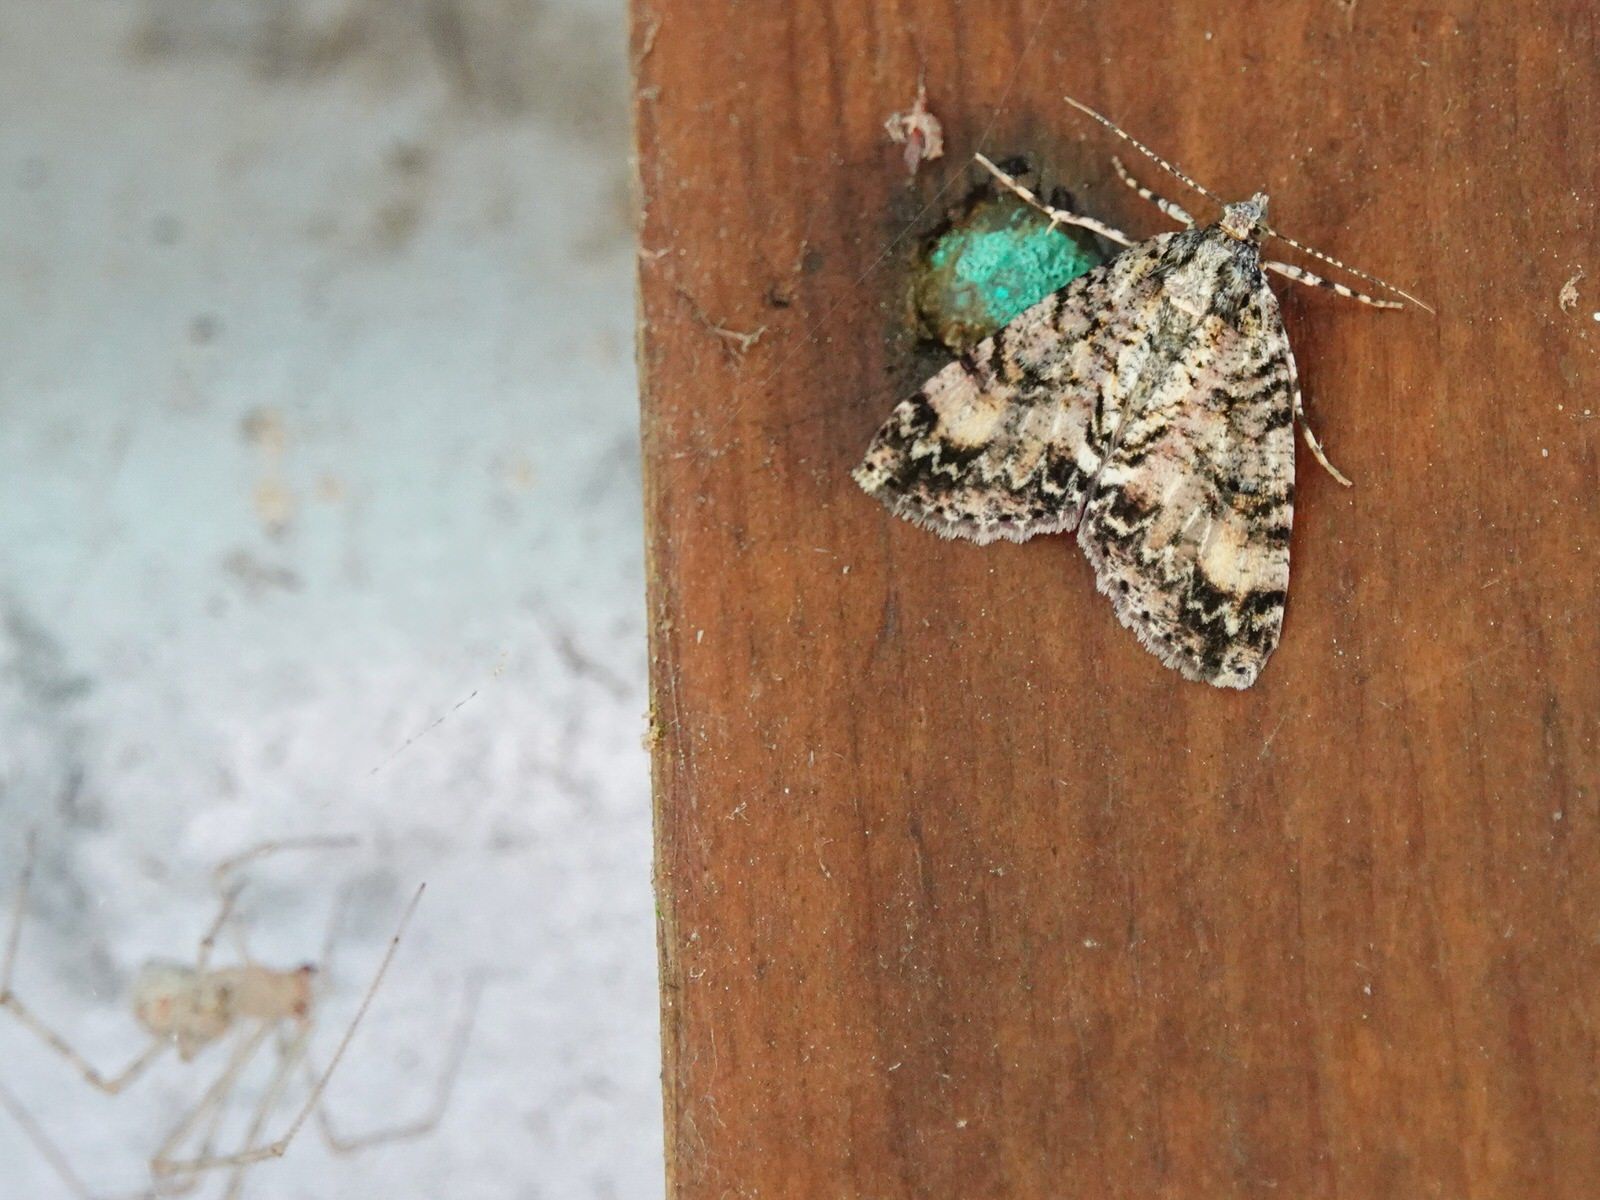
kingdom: Animalia
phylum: Arthropoda
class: Insecta
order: Lepidoptera
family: Geometridae
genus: Pseudocoremia
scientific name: Pseudocoremia suavis
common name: Common forest looper
